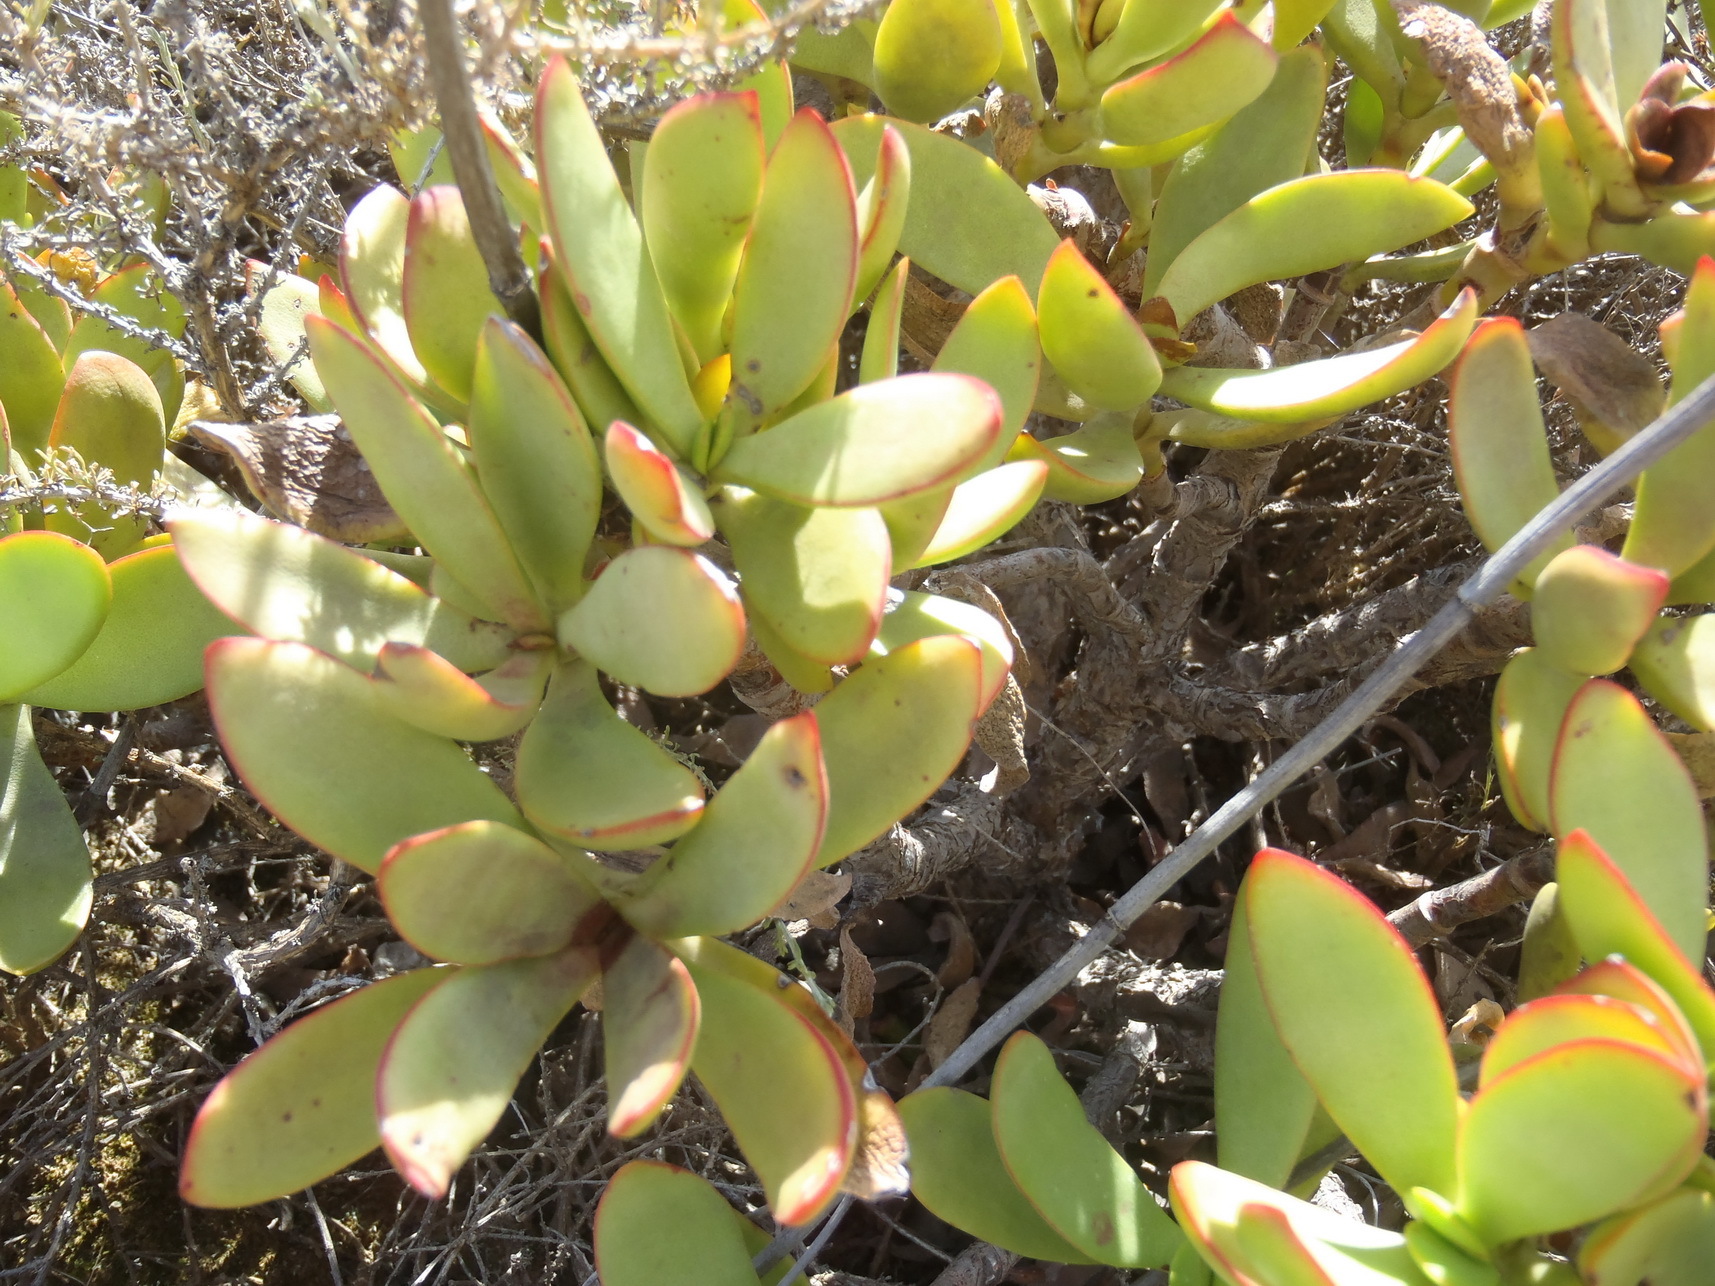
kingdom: Plantae
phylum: Tracheophyta
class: Magnoliopsida
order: Saxifragales
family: Crassulaceae
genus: Crassula
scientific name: Crassula cultrata
